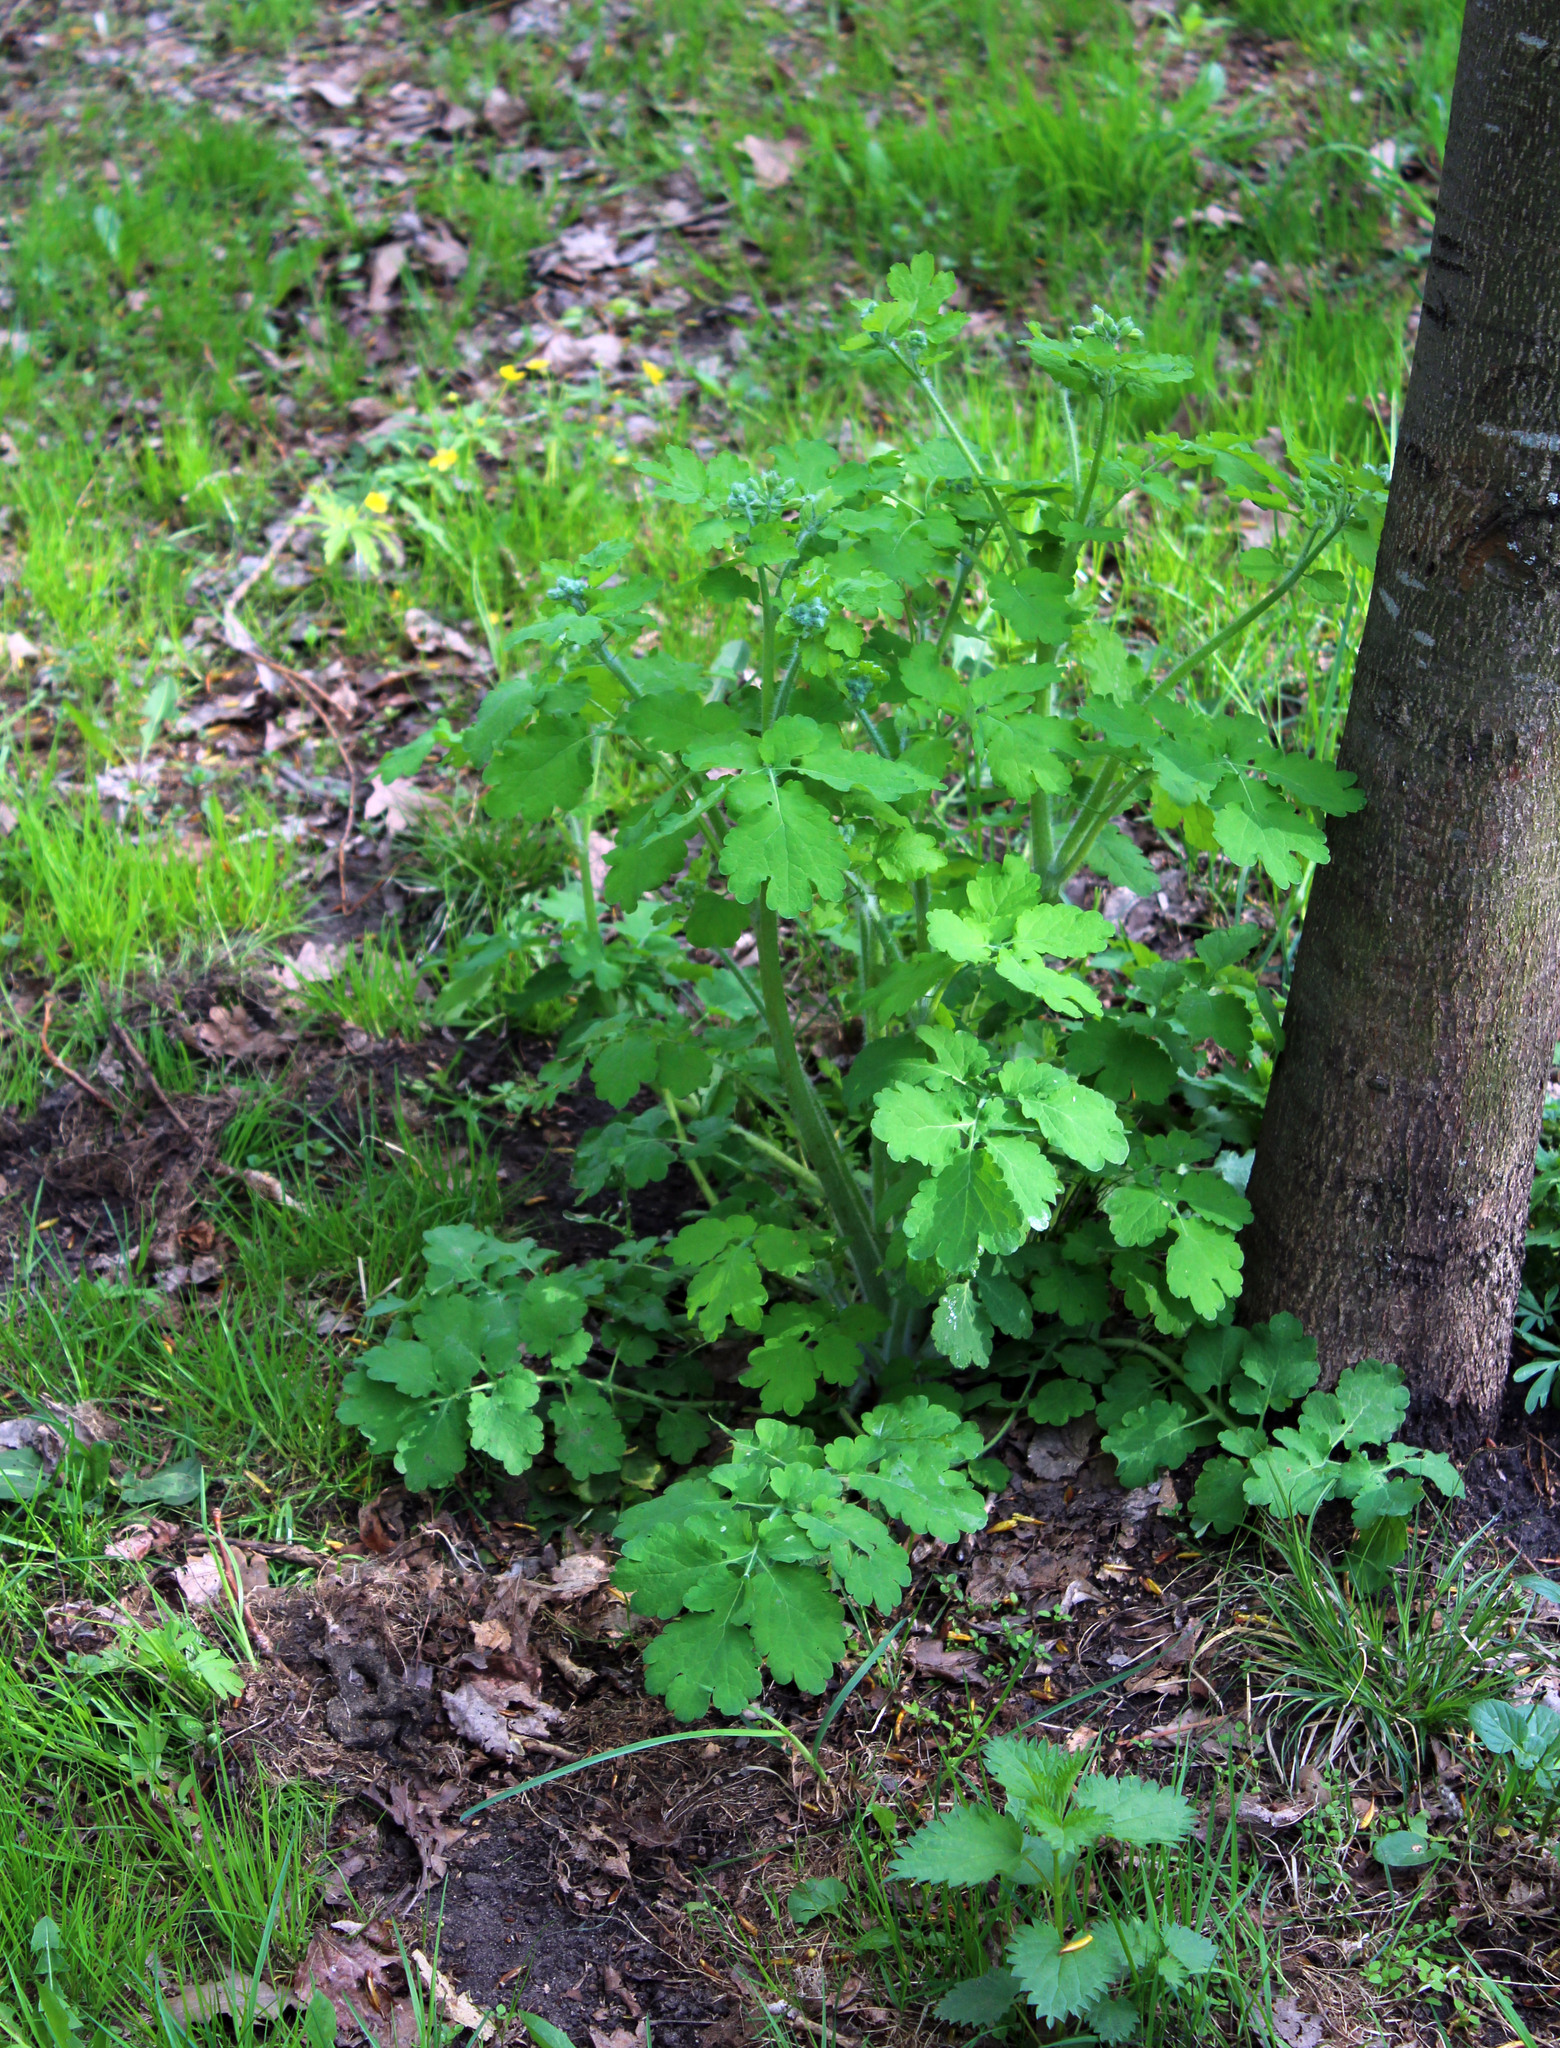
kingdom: Plantae
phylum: Tracheophyta
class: Magnoliopsida
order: Ranunculales
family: Papaveraceae
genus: Chelidonium
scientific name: Chelidonium majus
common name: Greater celandine
